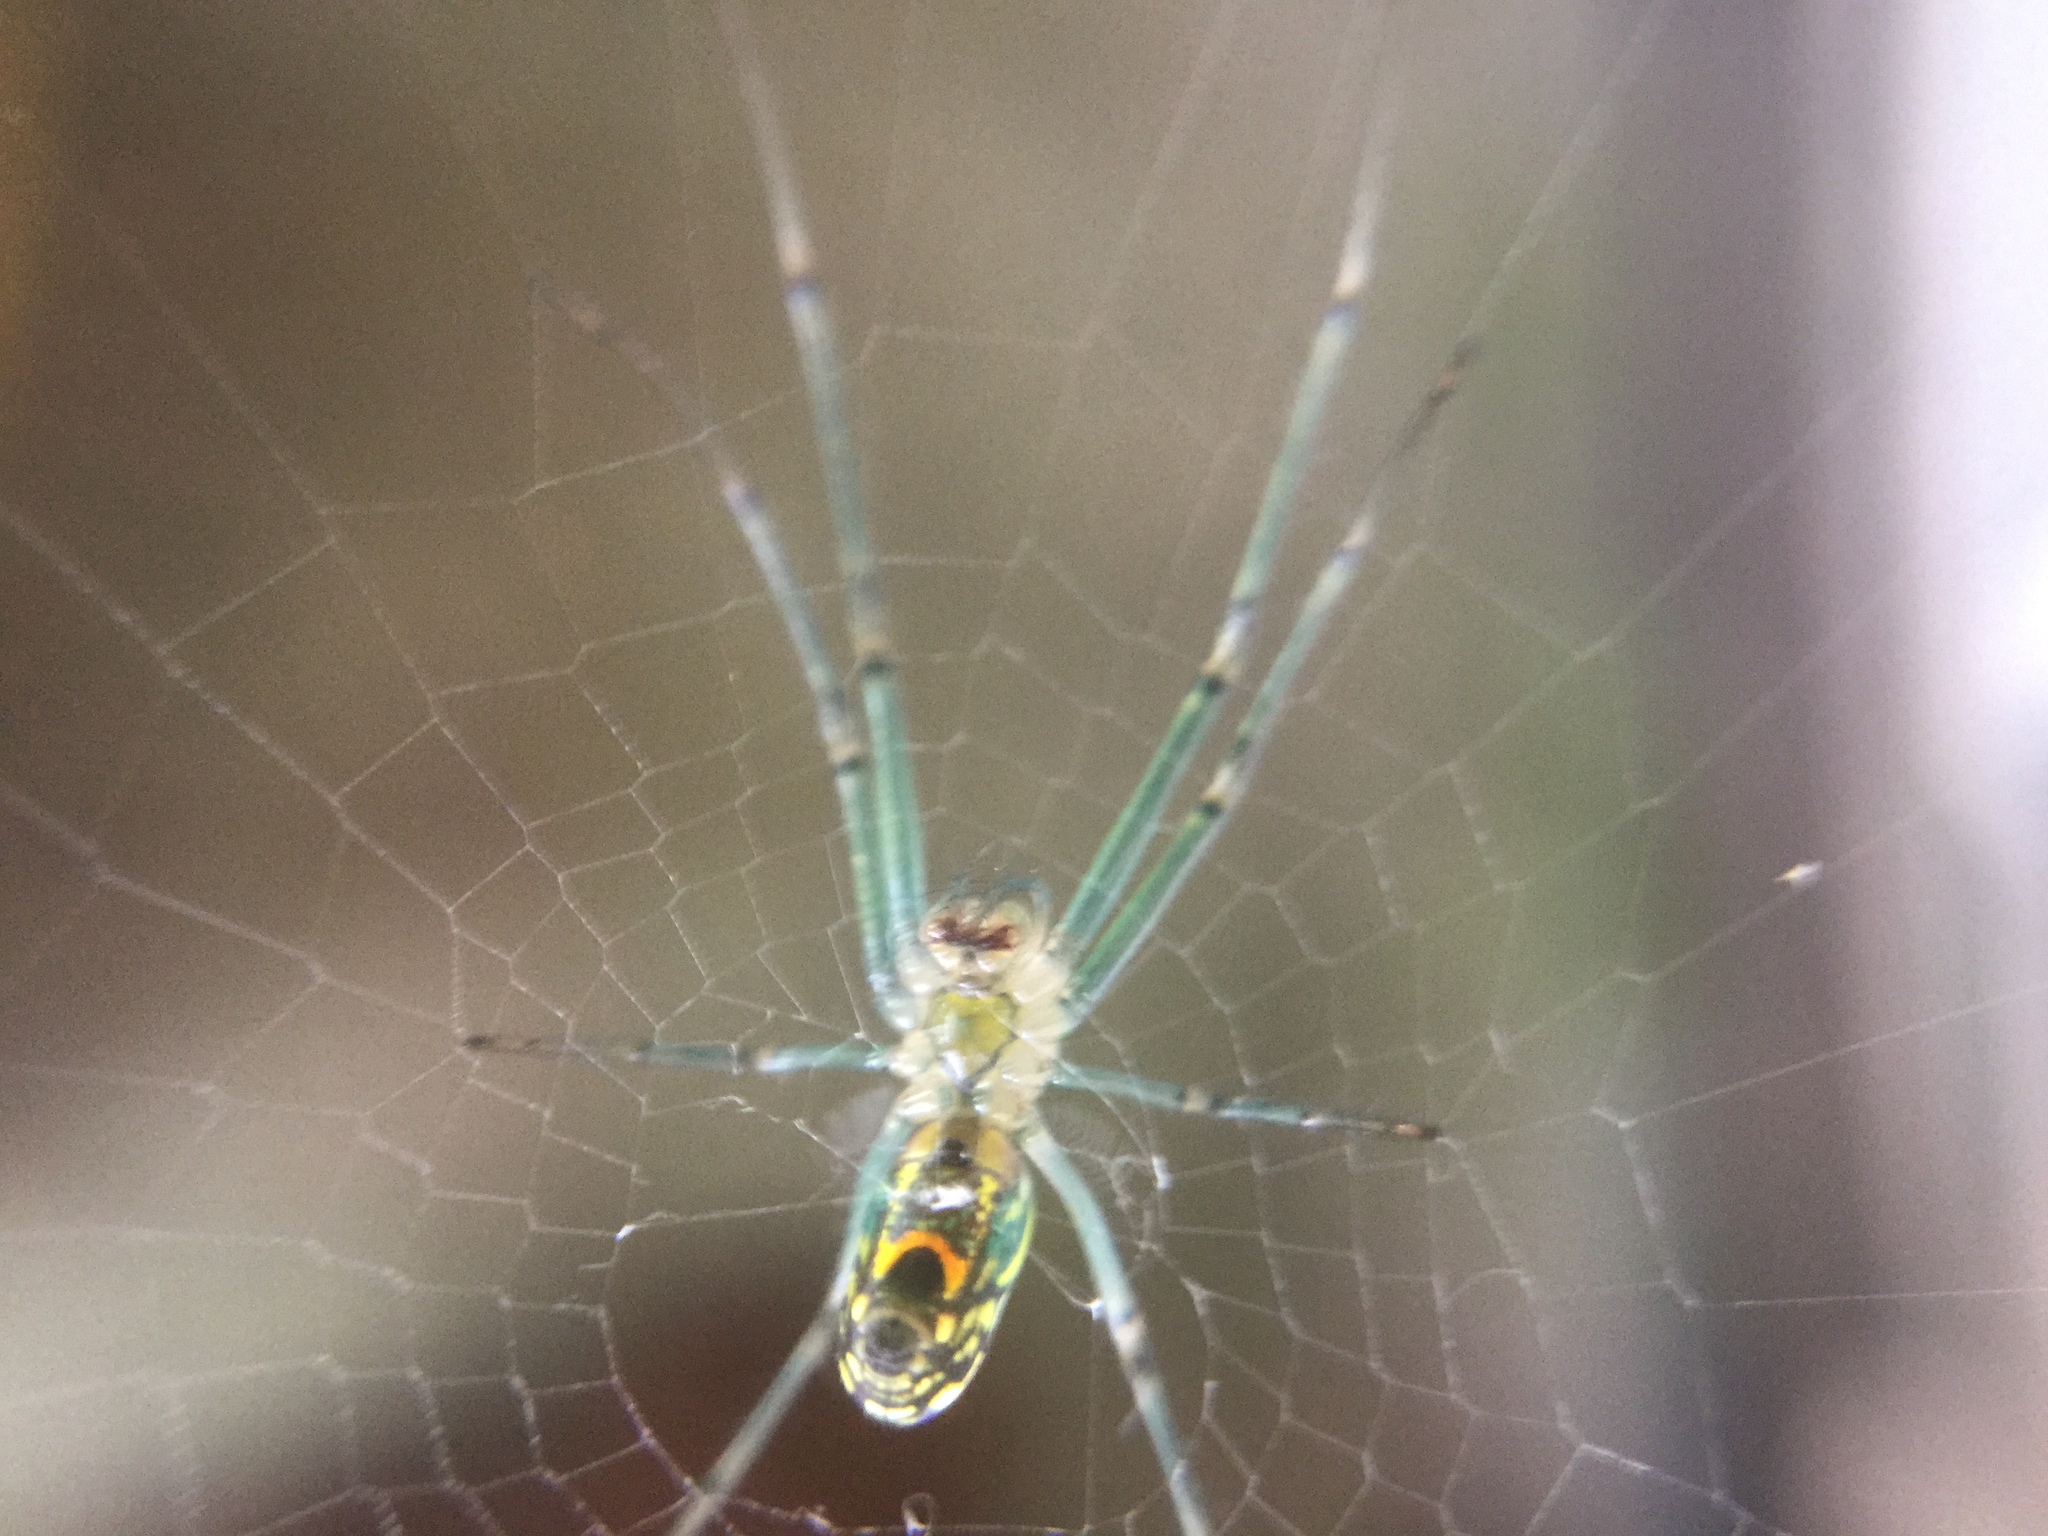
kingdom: Animalia
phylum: Arthropoda
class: Arachnida
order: Araneae
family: Tetragnathidae
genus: Leucauge
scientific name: Leucauge venusta
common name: Longjawed orb weavers
